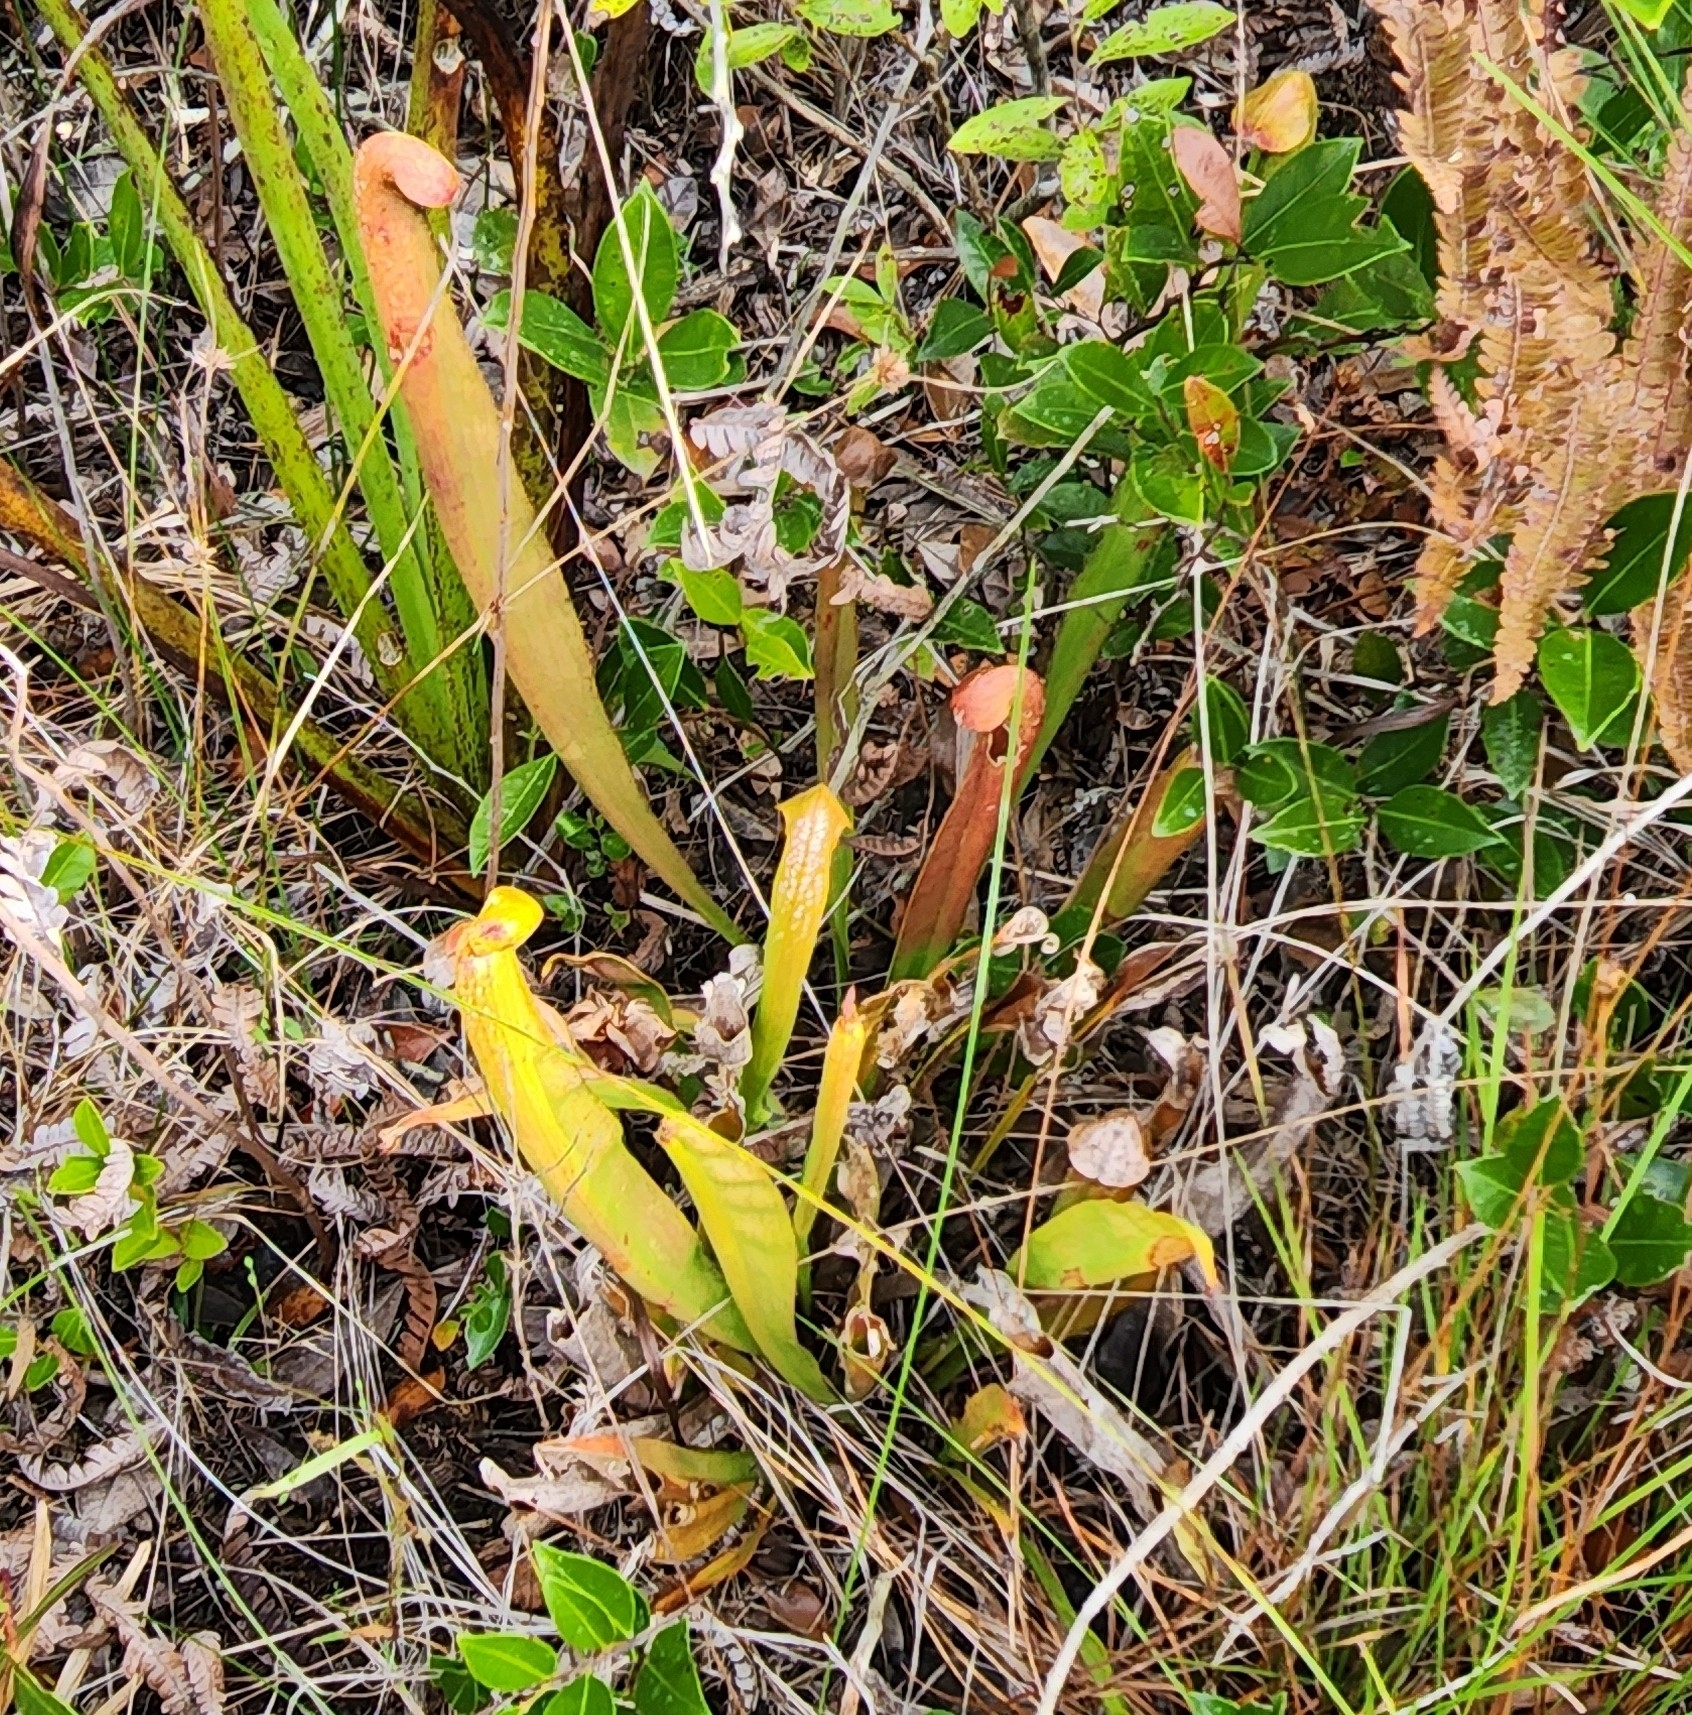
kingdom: Plantae
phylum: Tracheophyta
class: Magnoliopsida
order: Ericales
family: Sarraceniaceae
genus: Sarracenia
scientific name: Sarracenia minor
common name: Rainhat-trumpet
